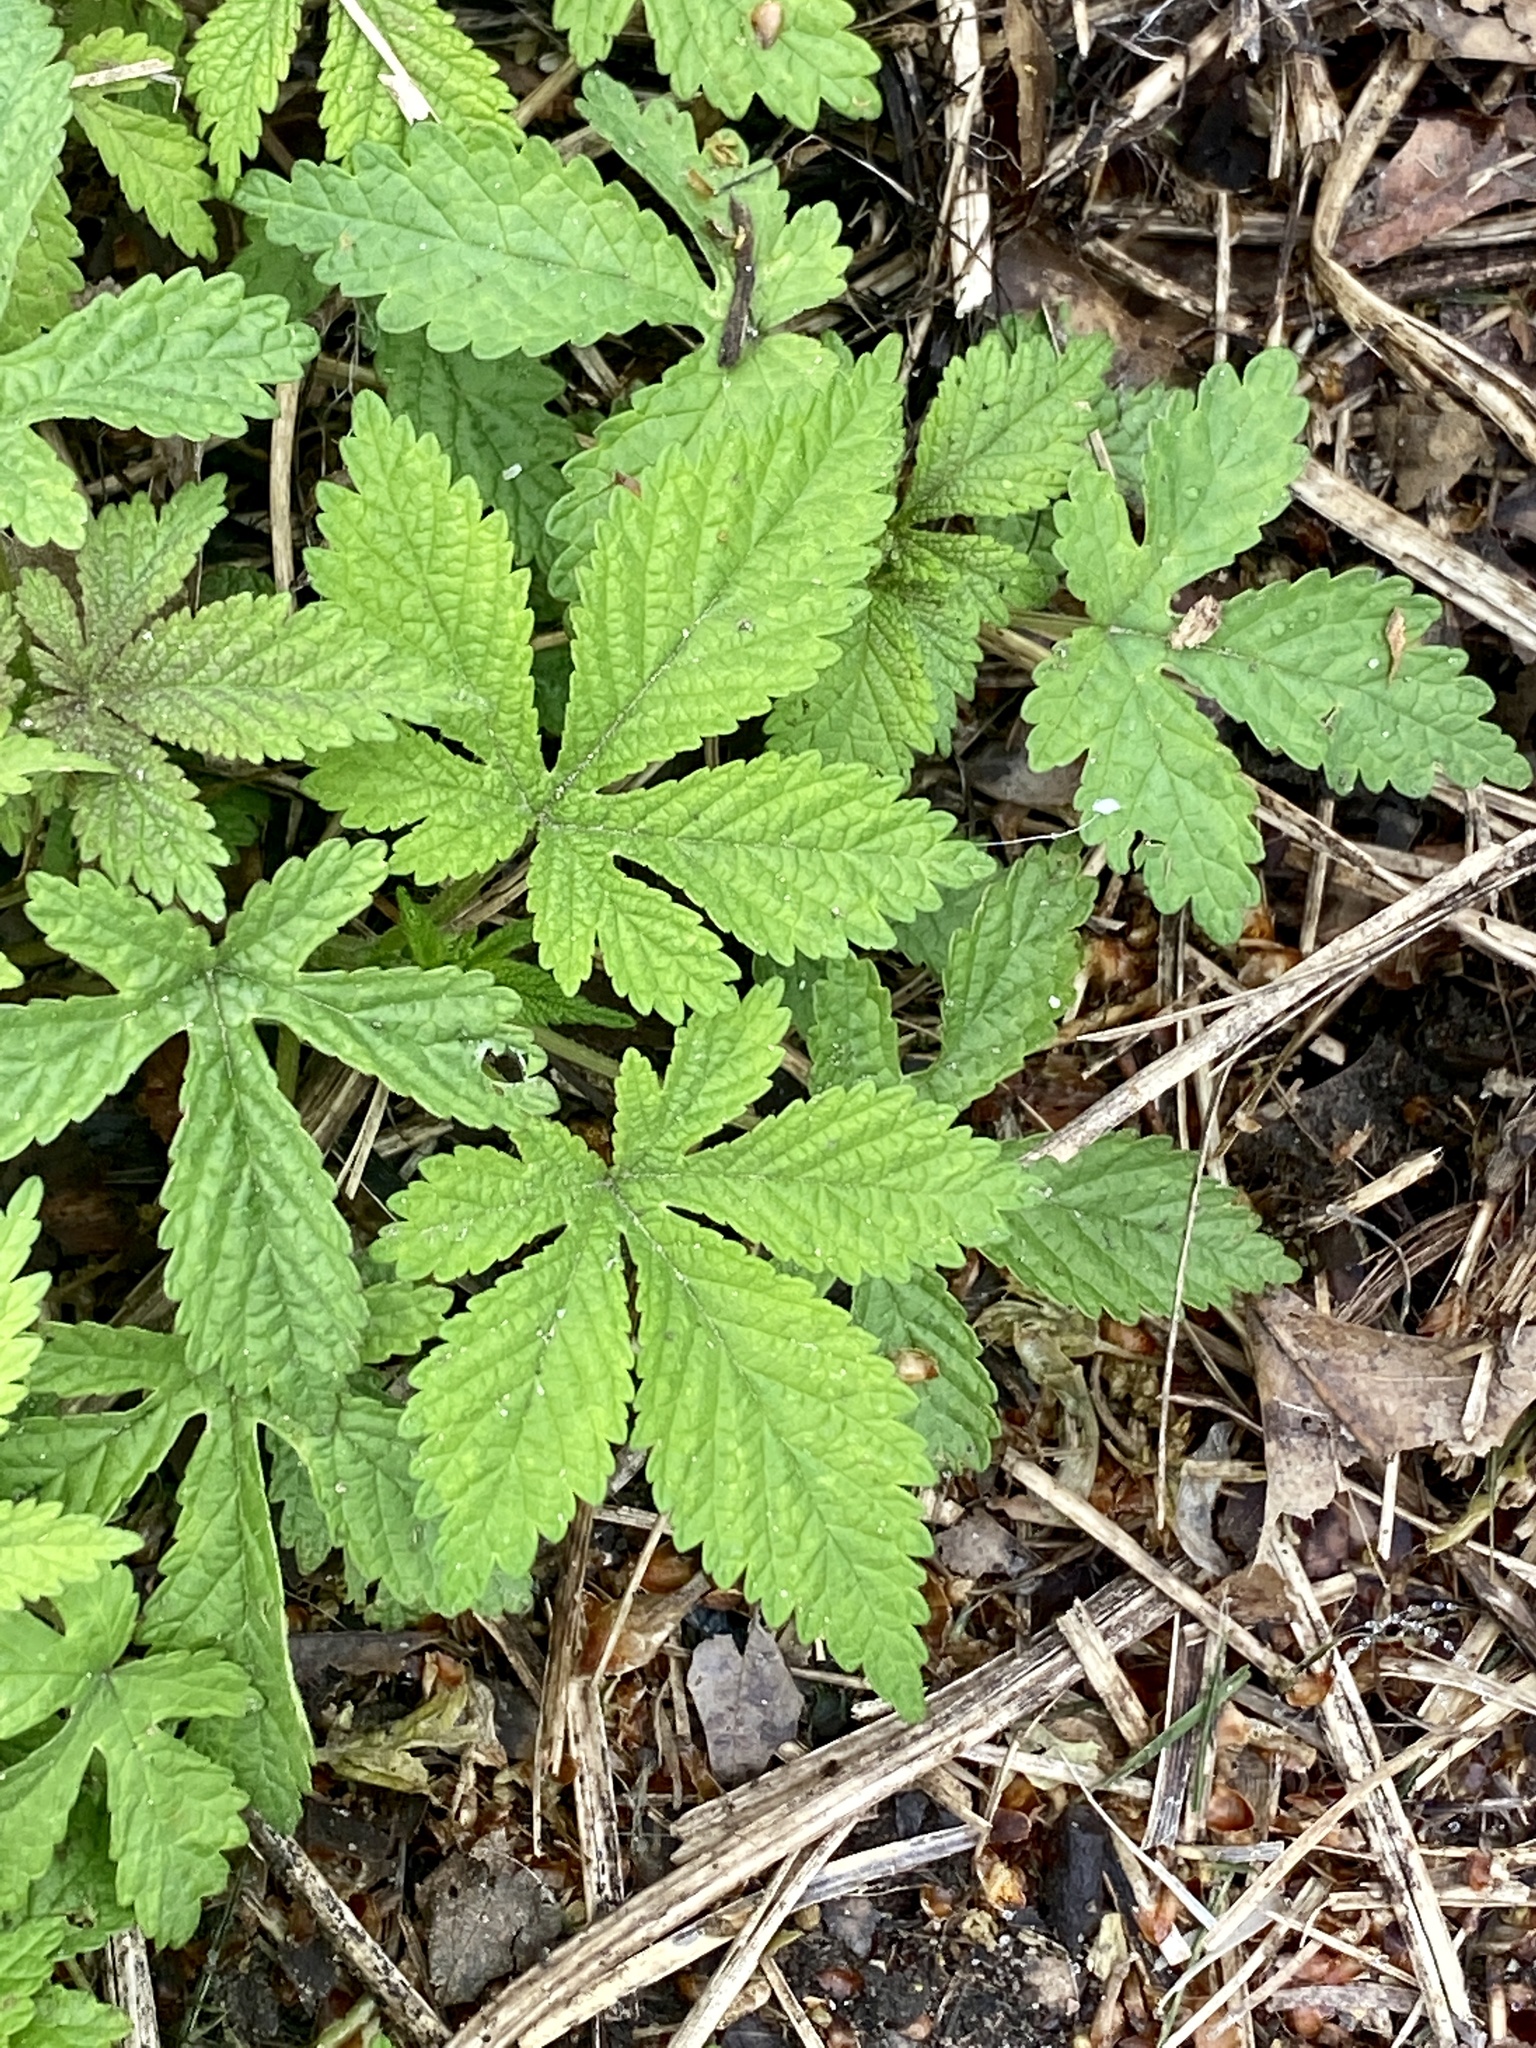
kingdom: Plantae
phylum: Tracheophyta
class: Magnoliopsida
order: Rosales
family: Cannabaceae
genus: Humulus
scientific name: Humulus scandens
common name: Japanese hop
